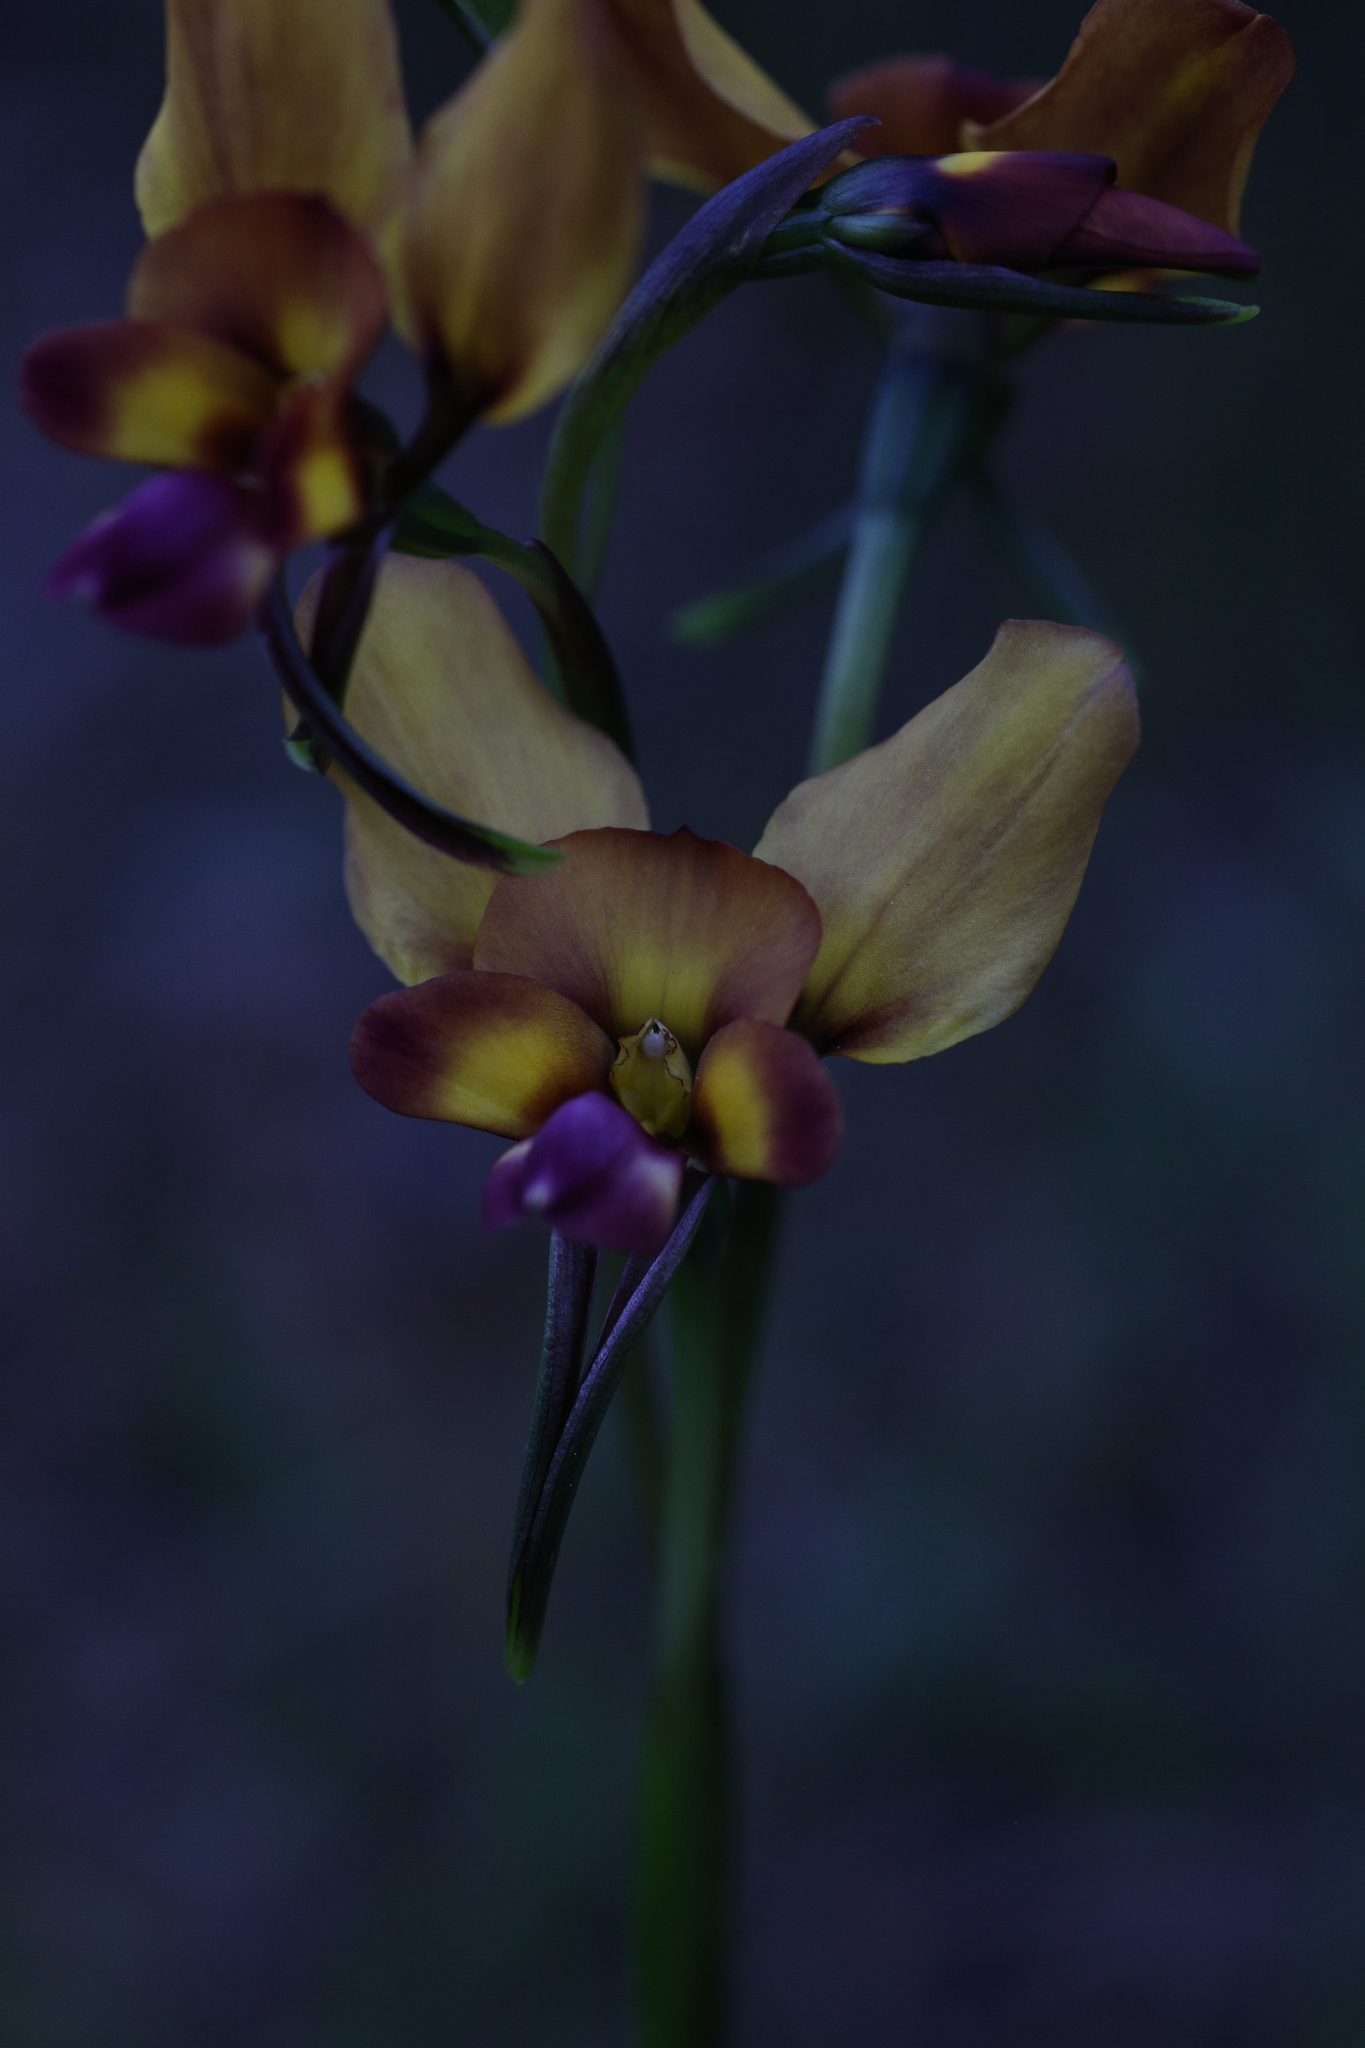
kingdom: Plantae
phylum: Tracheophyta
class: Liliopsida
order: Asparagales
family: Orchidaceae
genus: Diuris
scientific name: Diuris magnifica
